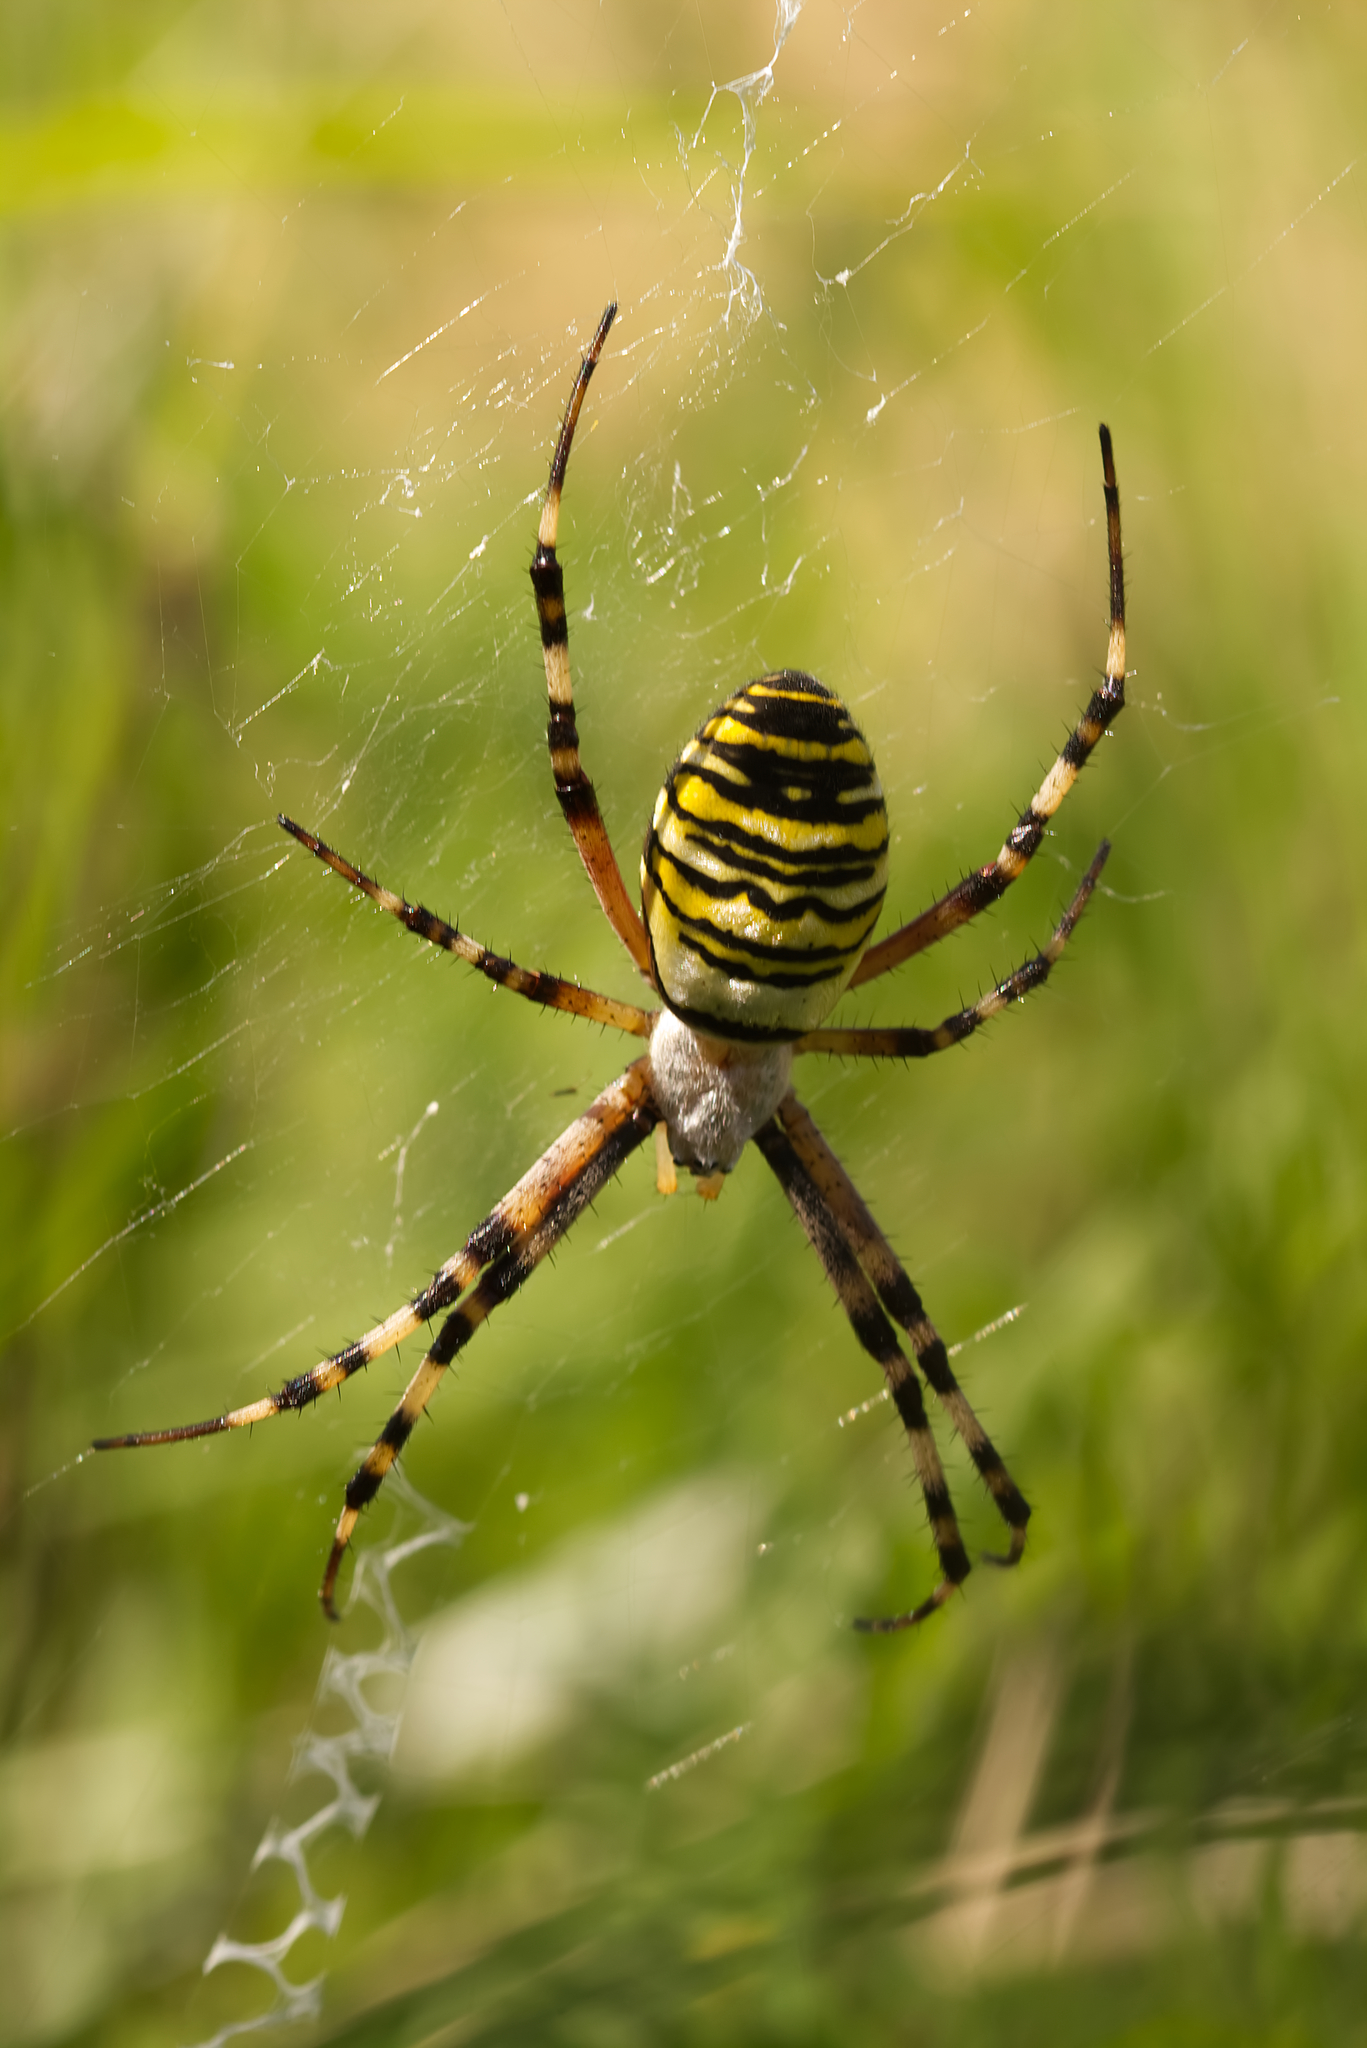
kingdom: Animalia
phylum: Arthropoda
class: Arachnida
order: Araneae
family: Araneidae
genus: Argiope
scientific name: Argiope bruennichi
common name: Wasp spider
